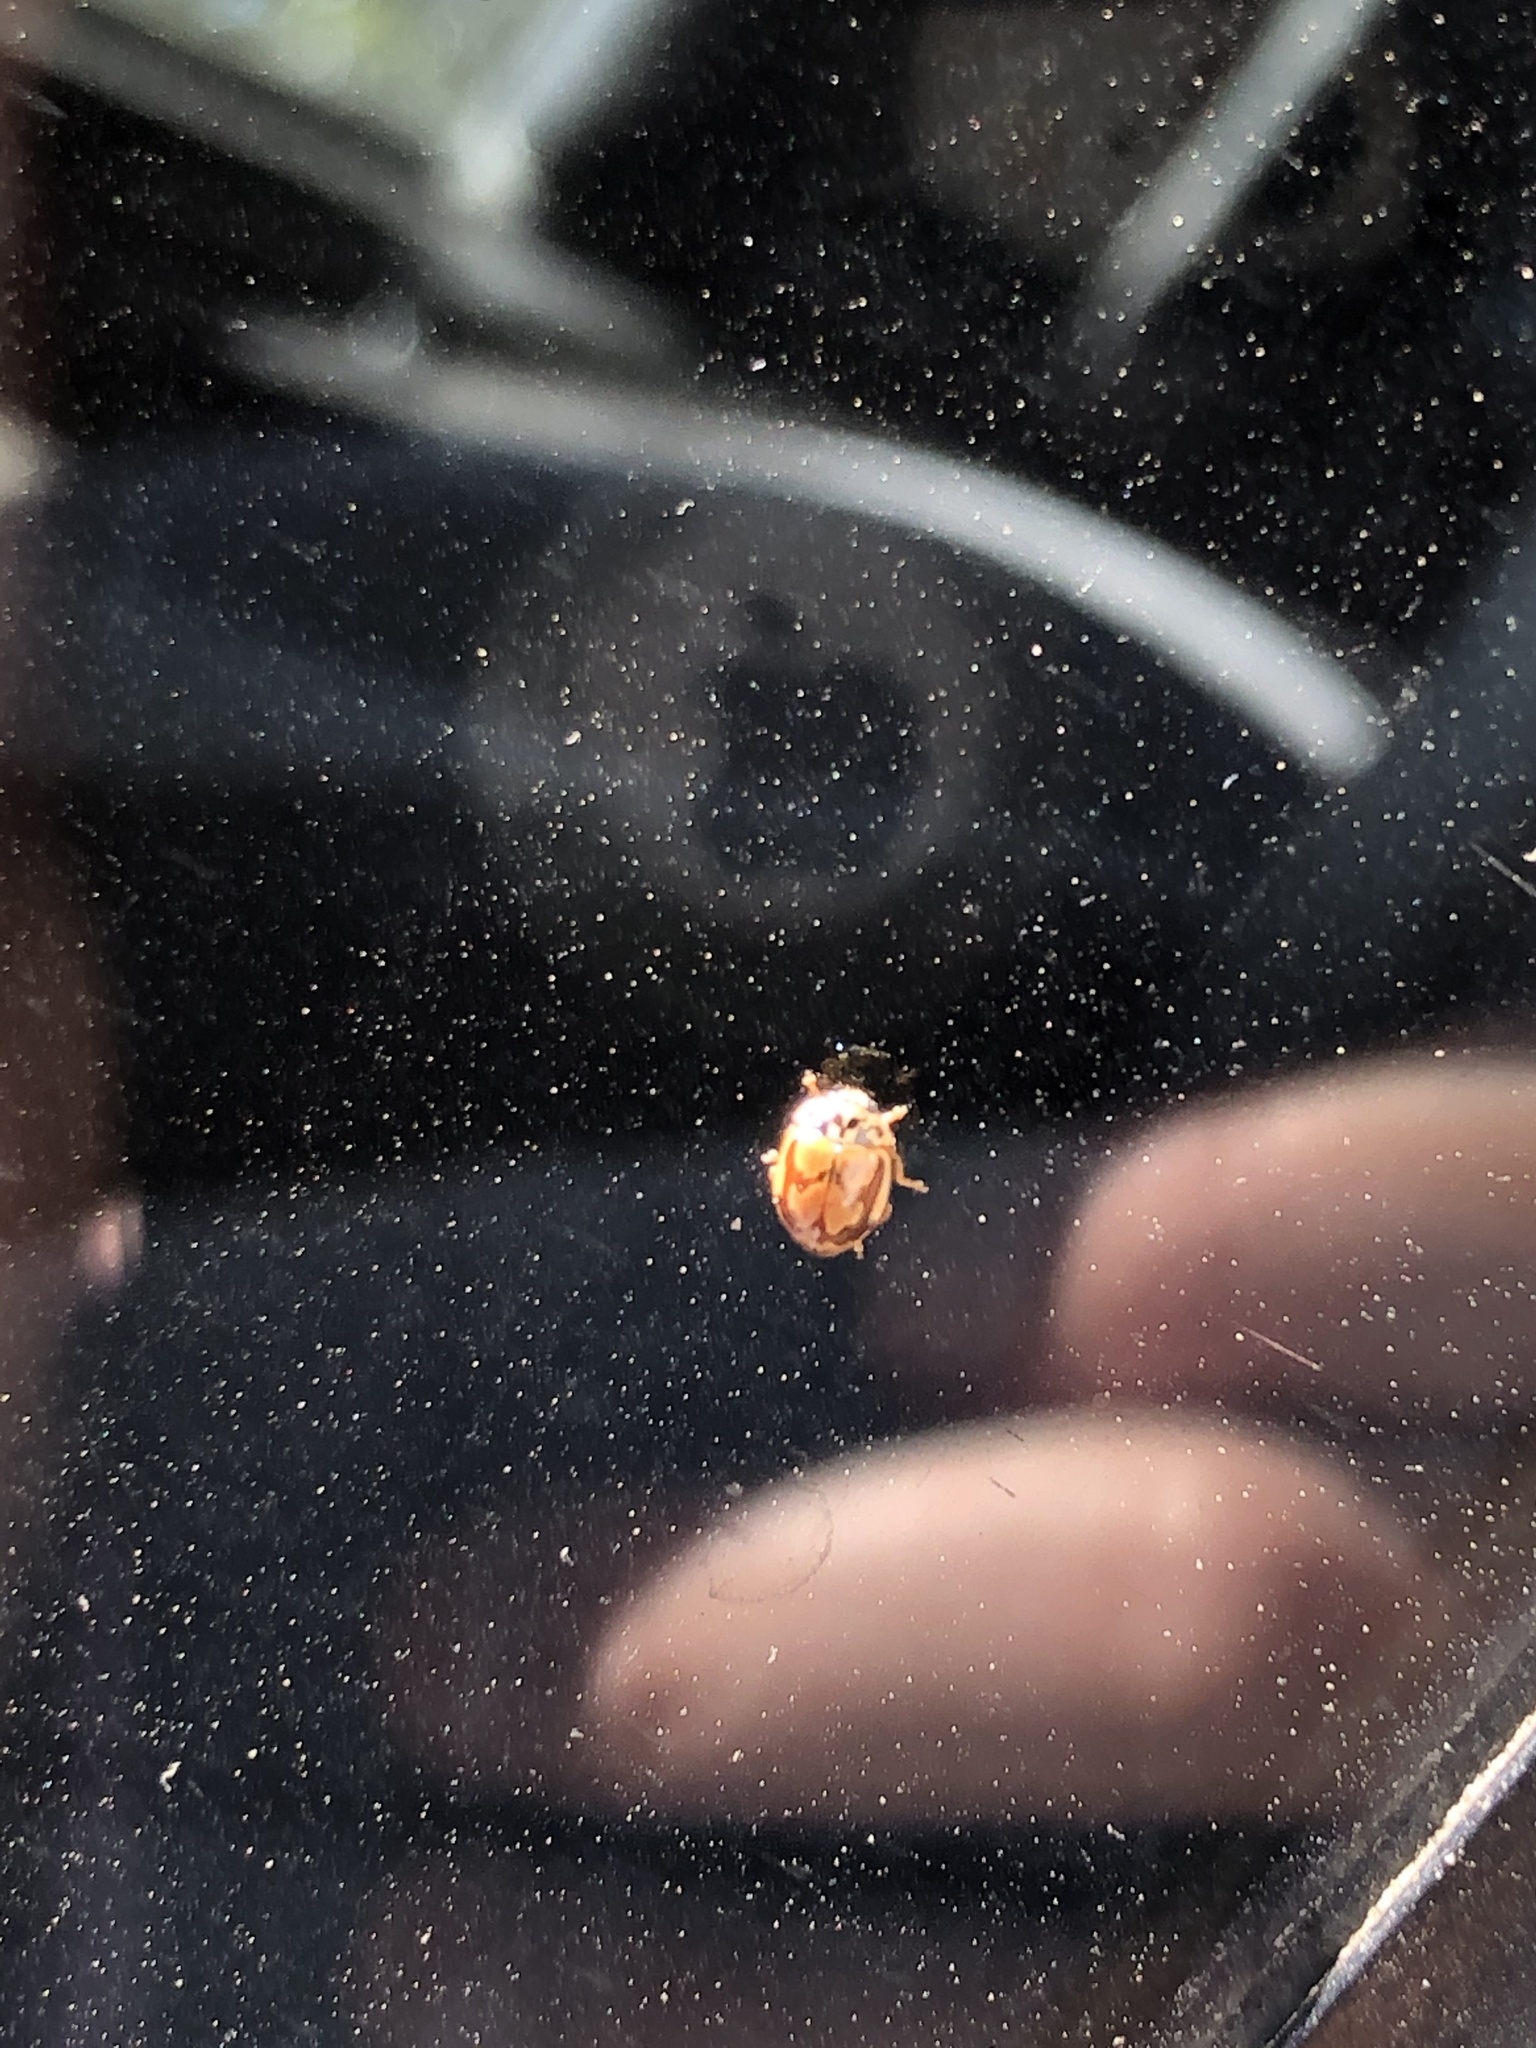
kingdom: Animalia
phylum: Arthropoda
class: Insecta
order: Coleoptera
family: Coccinellidae
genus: Mulsantina
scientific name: Mulsantina picta
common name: Painted ladybird
